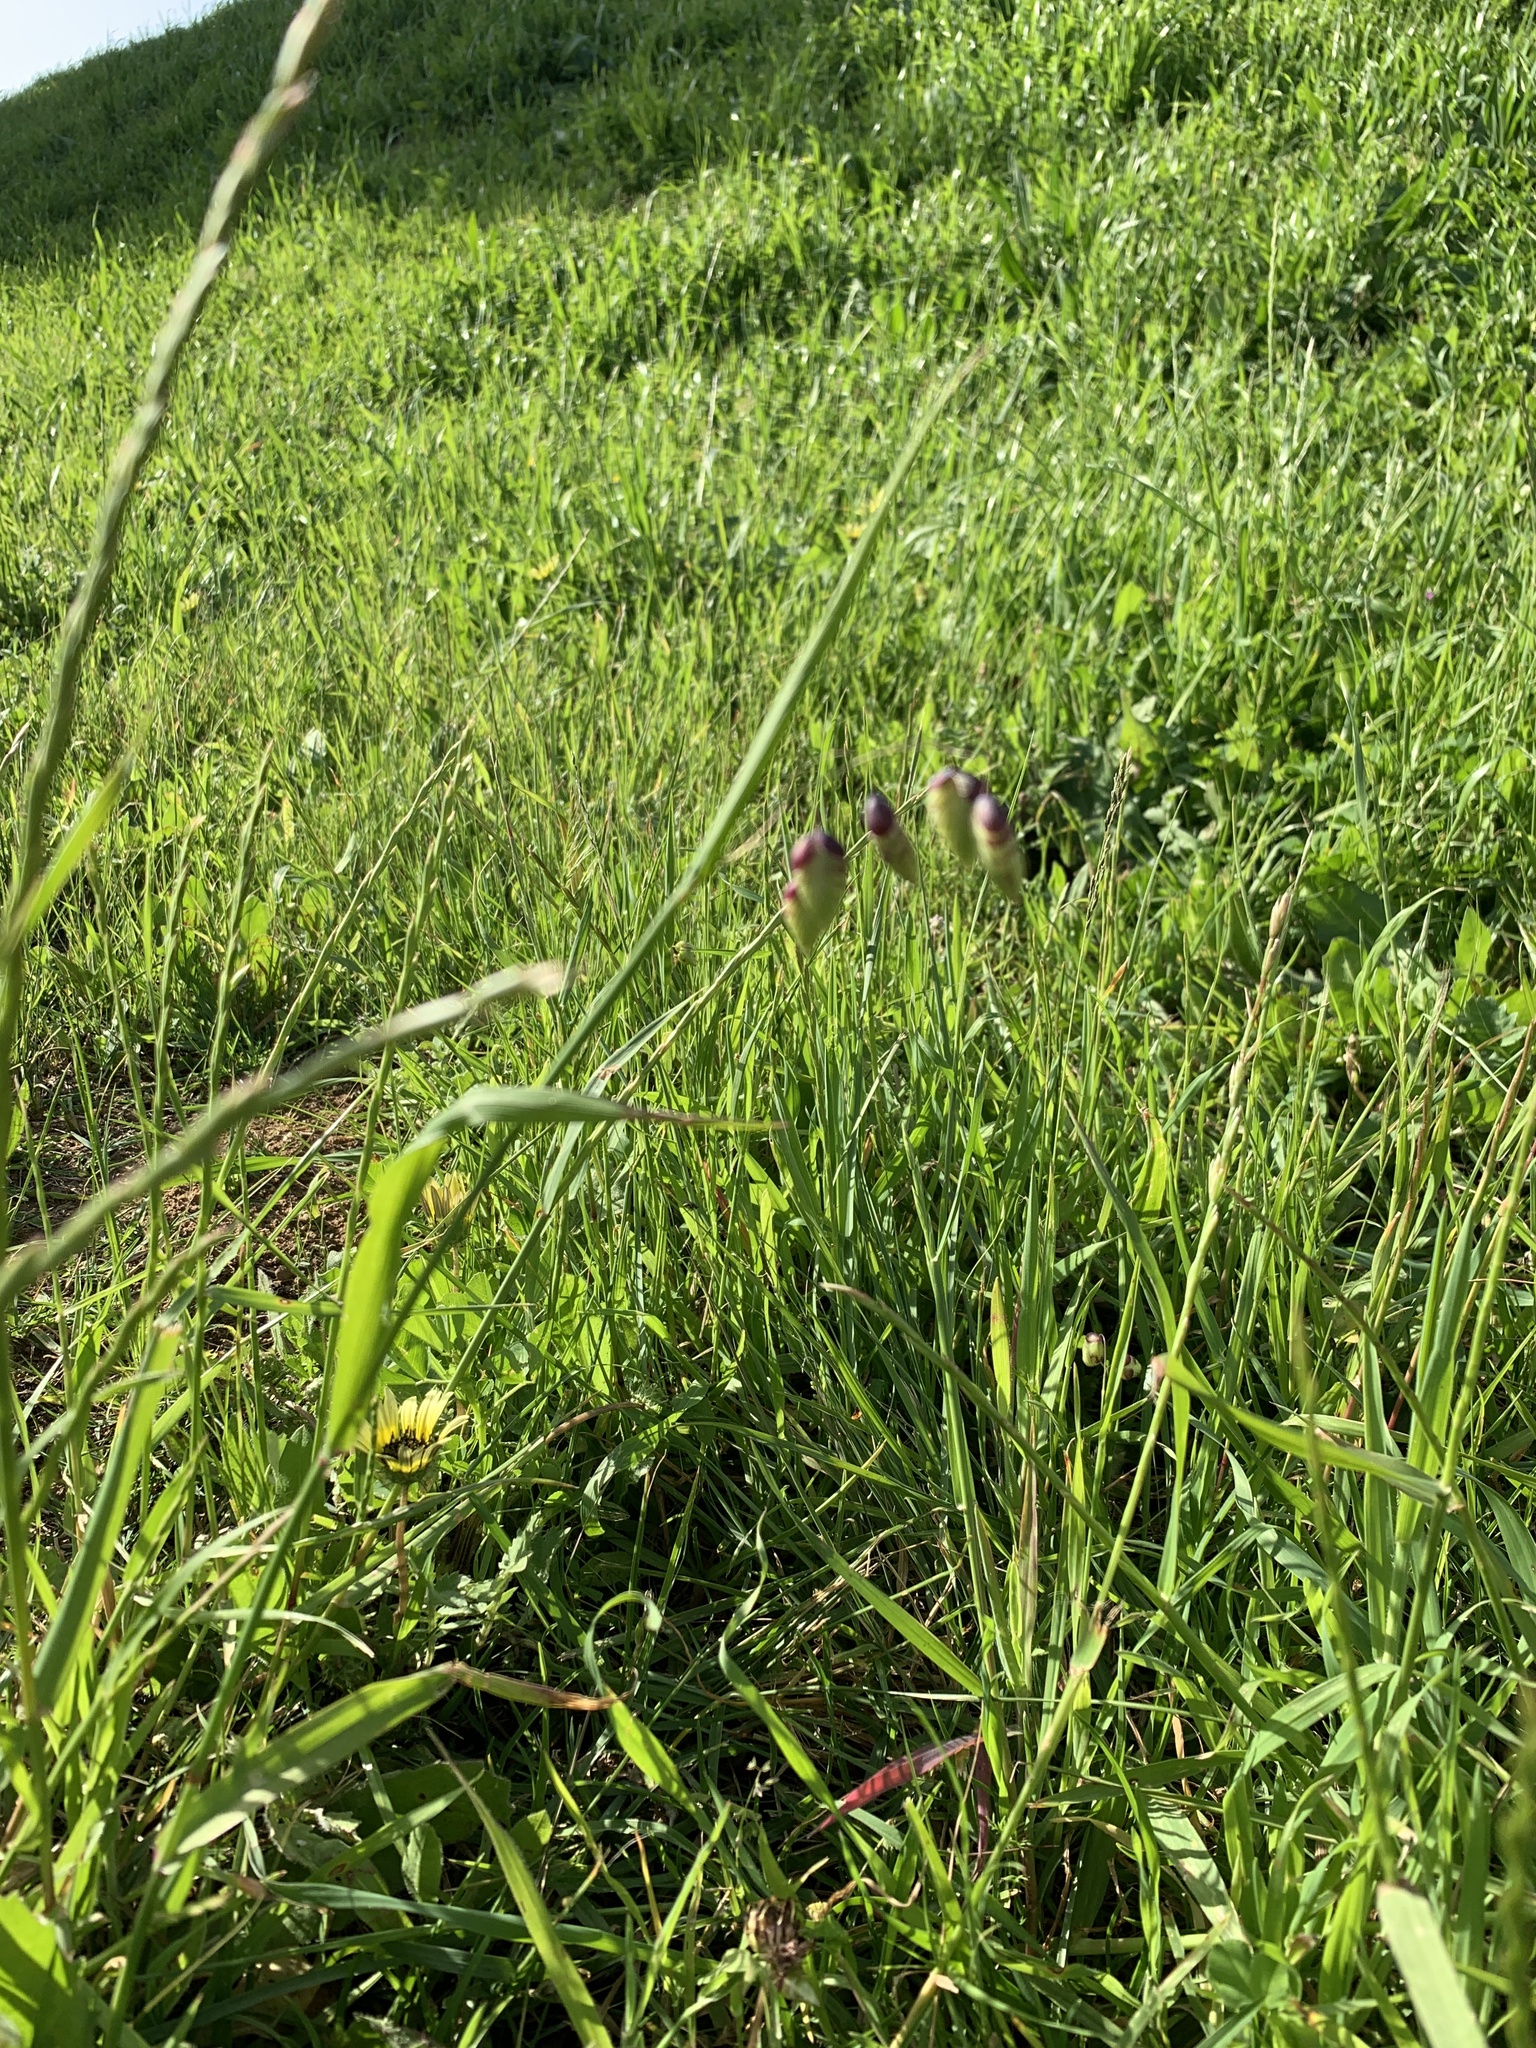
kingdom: Plantae
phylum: Tracheophyta
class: Liliopsida
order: Poales
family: Poaceae
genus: Briza
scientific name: Briza maxima
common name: Big quakinggrass
